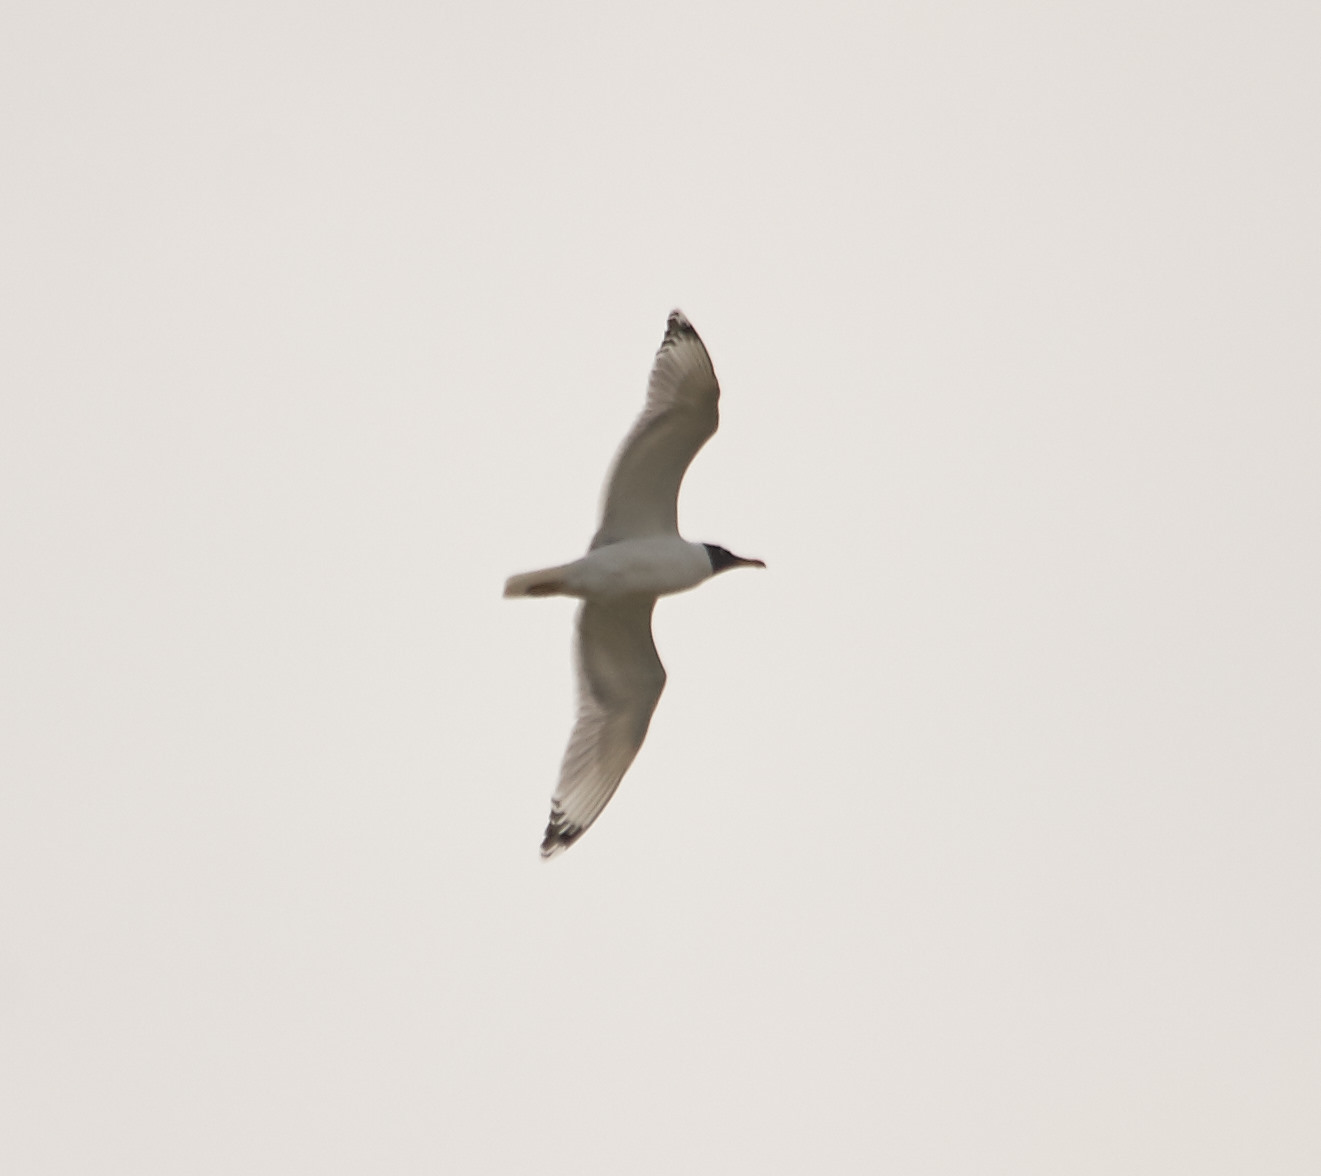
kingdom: Animalia
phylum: Chordata
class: Aves
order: Charadriiformes
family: Laridae
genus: Ichthyaetus
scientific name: Ichthyaetus ichthyaetus
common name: Pallas's gull
